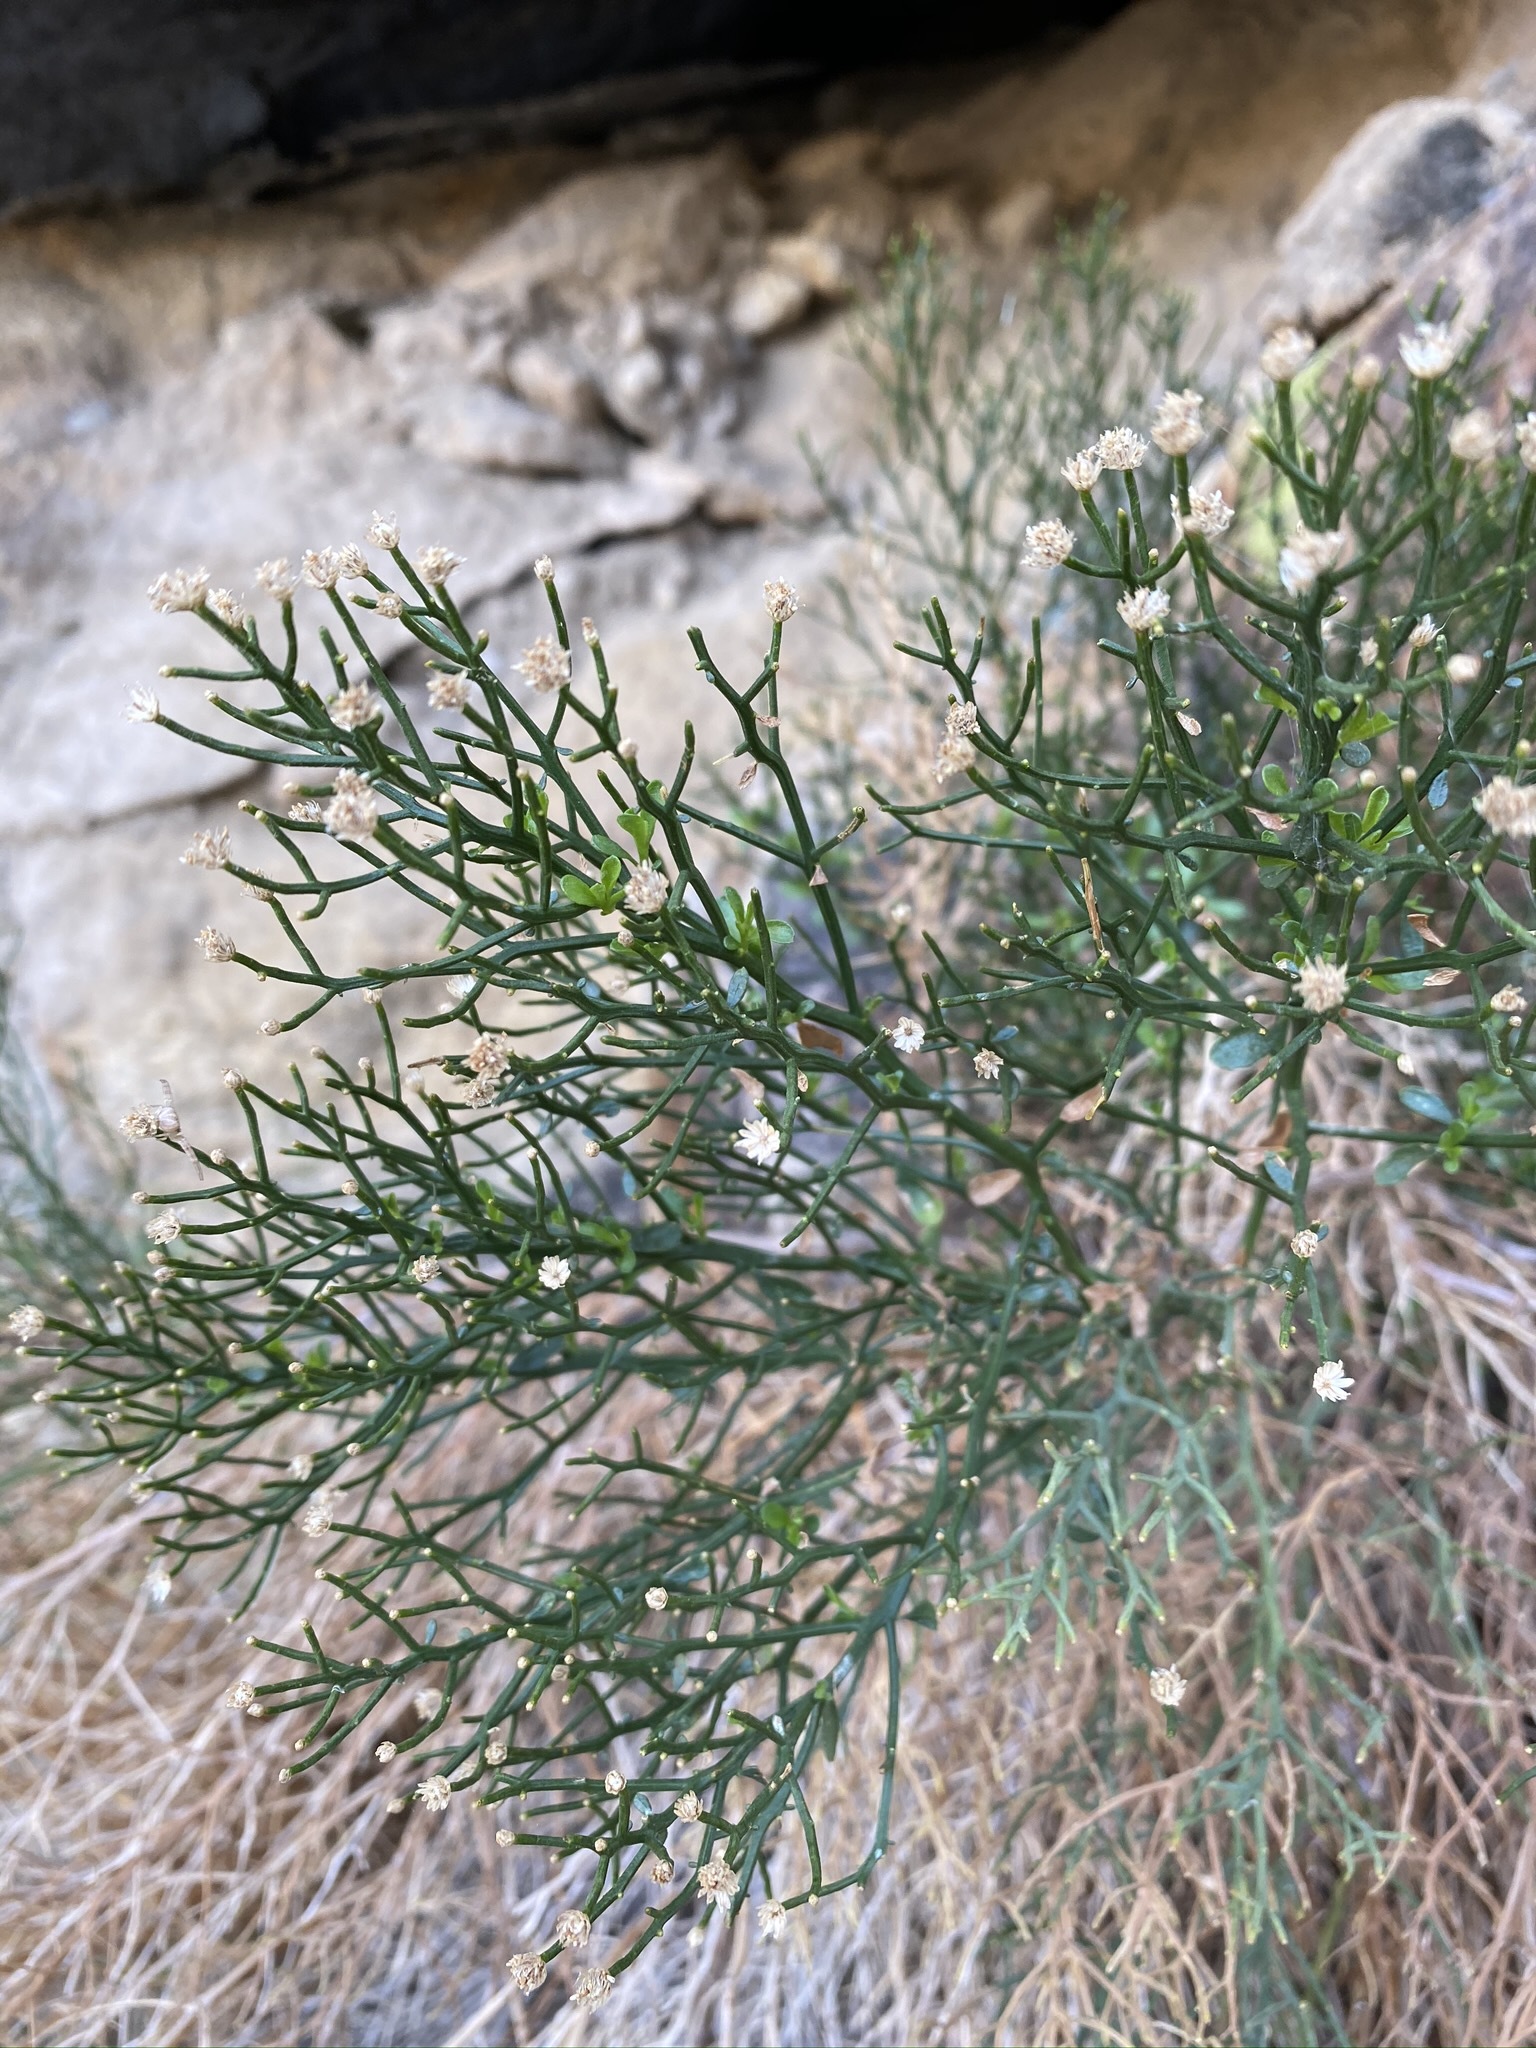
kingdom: Plantae
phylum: Tracheophyta
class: Magnoliopsida
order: Asterales
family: Asteraceae
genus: Baccharis
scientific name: Baccharis sergiloides
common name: Desert baccharis
